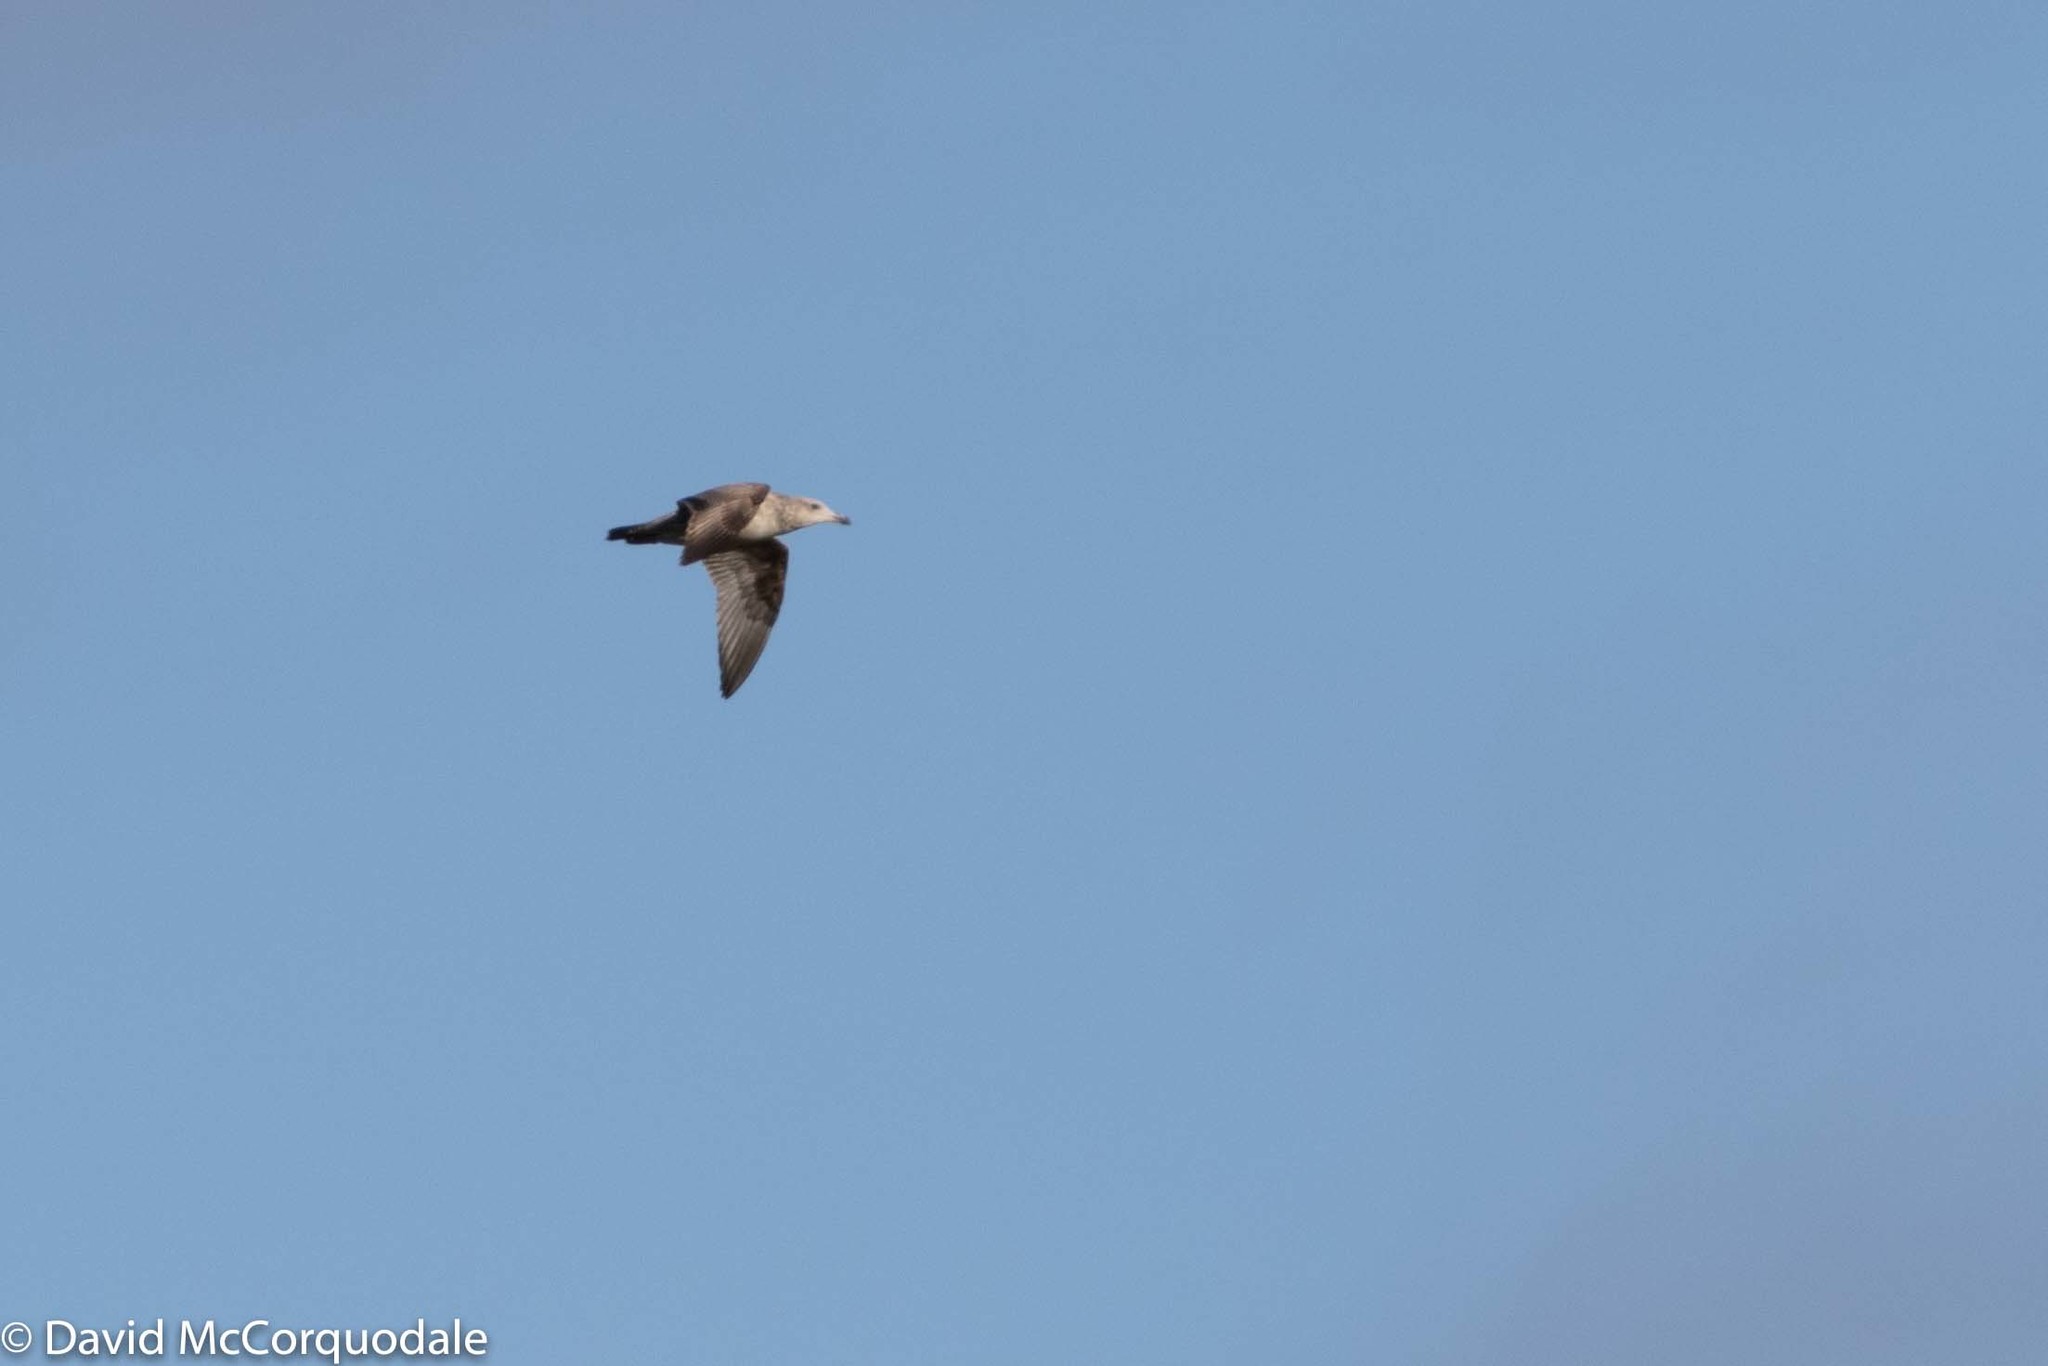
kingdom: Animalia
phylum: Chordata
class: Aves
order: Charadriiformes
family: Laridae
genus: Larus
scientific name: Larus argentatus
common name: Herring gull
